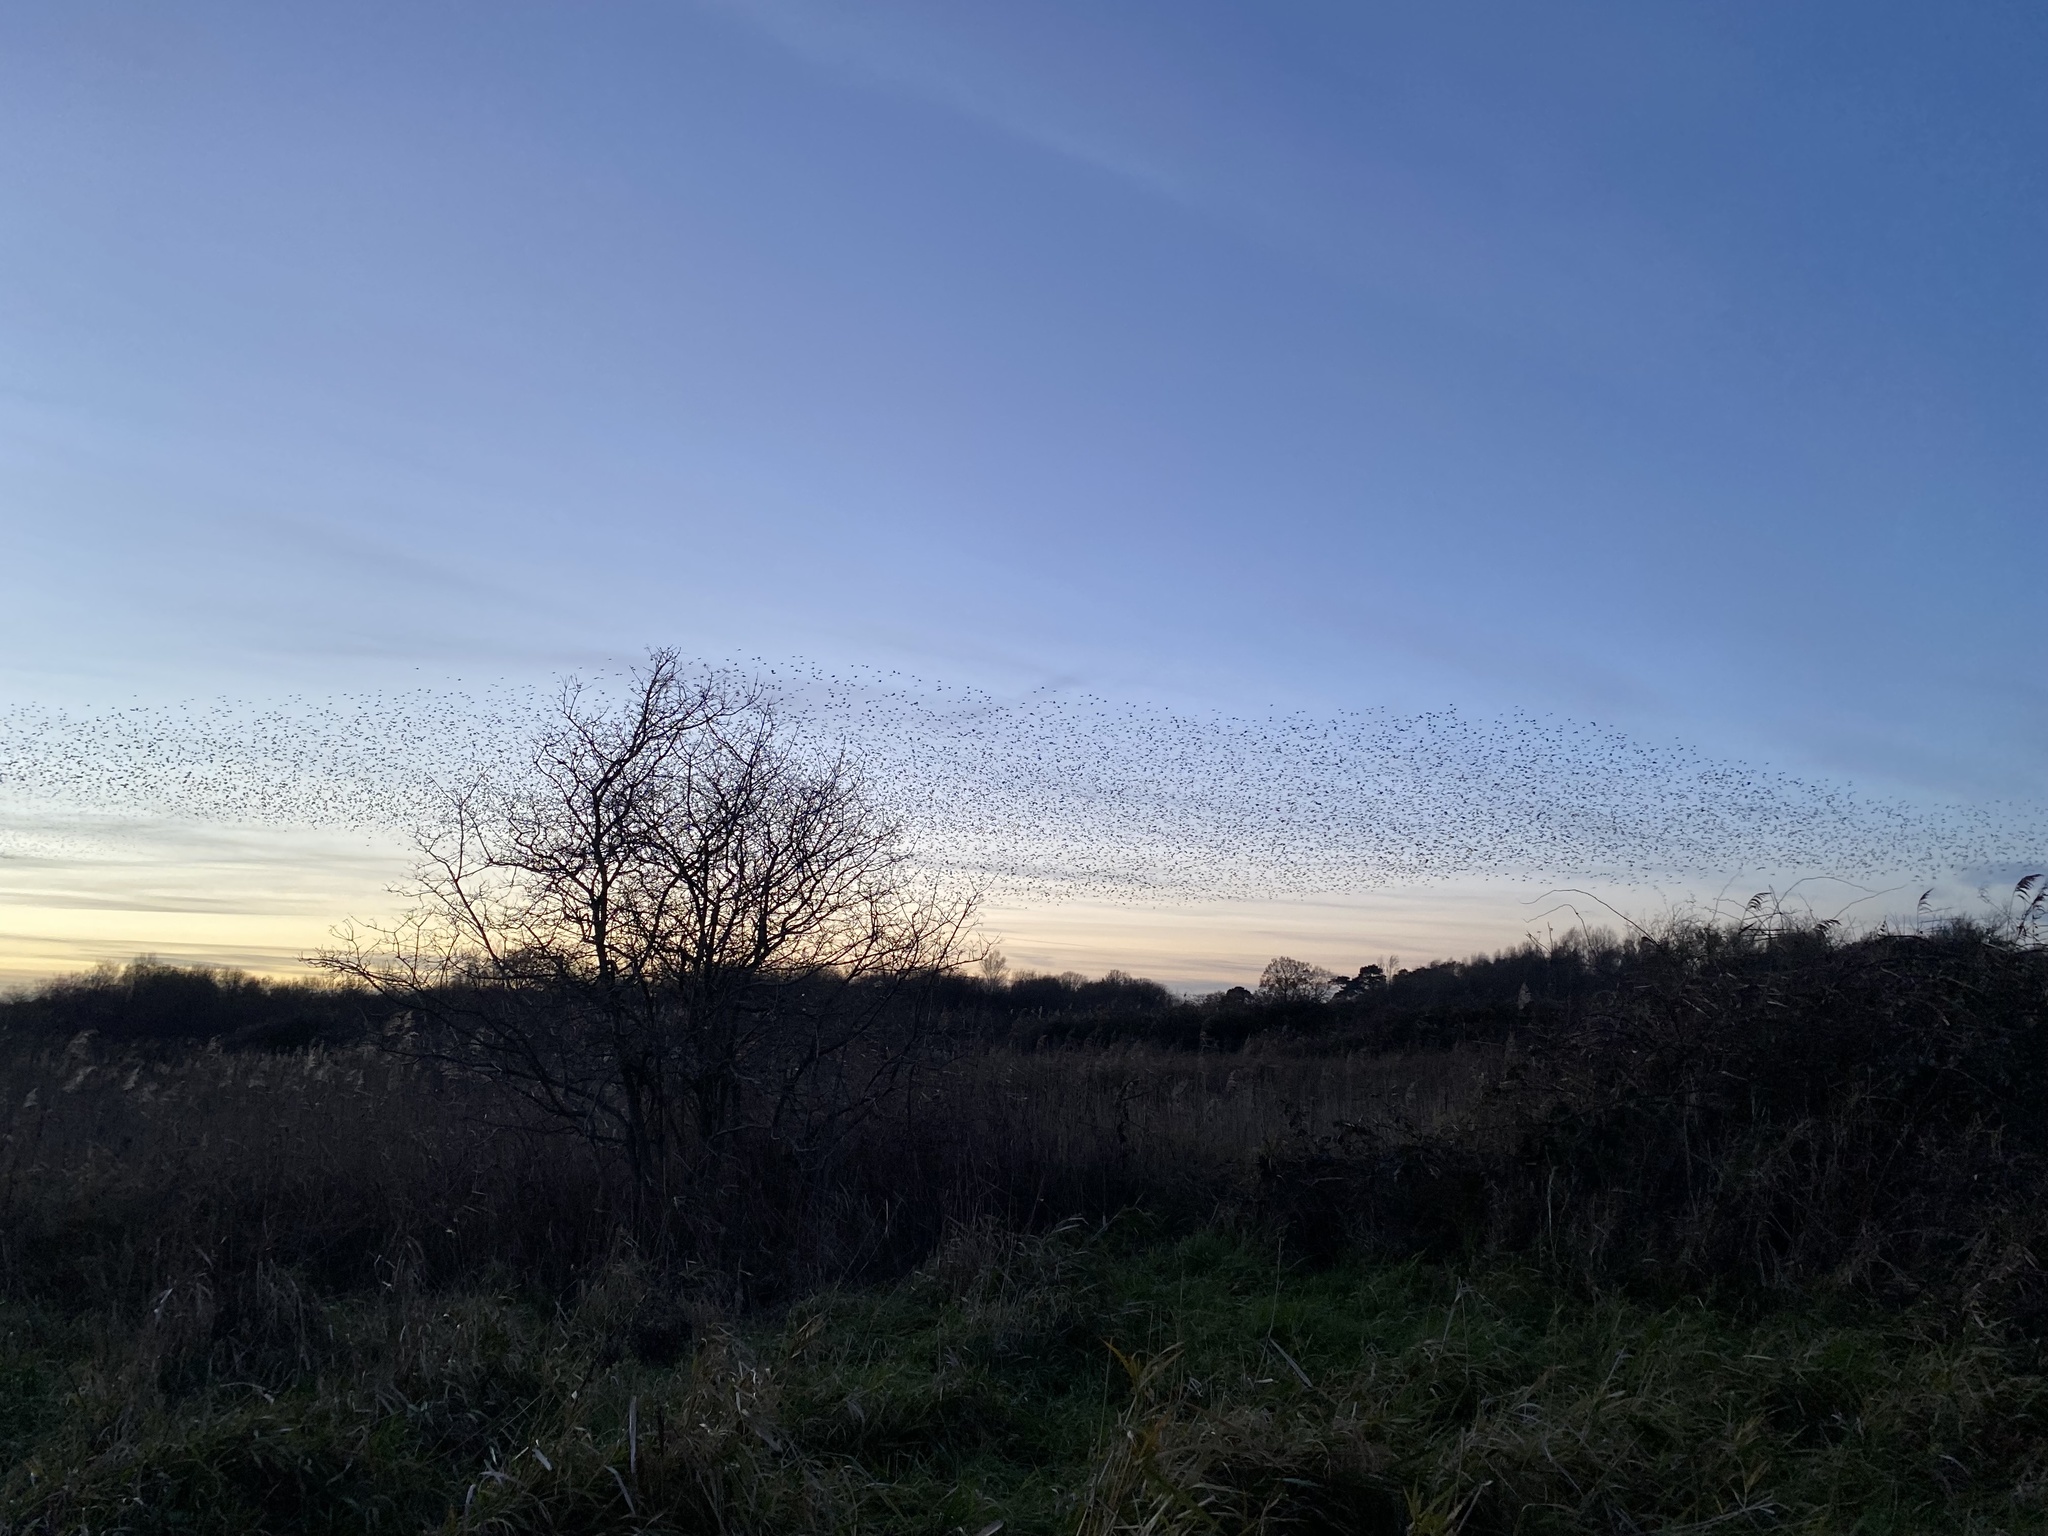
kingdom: Animalia
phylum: Chordata
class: Aves
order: Passeriformes
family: Sturnidae
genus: Sturnus
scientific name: Sturnus vulgaris
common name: Common starling
